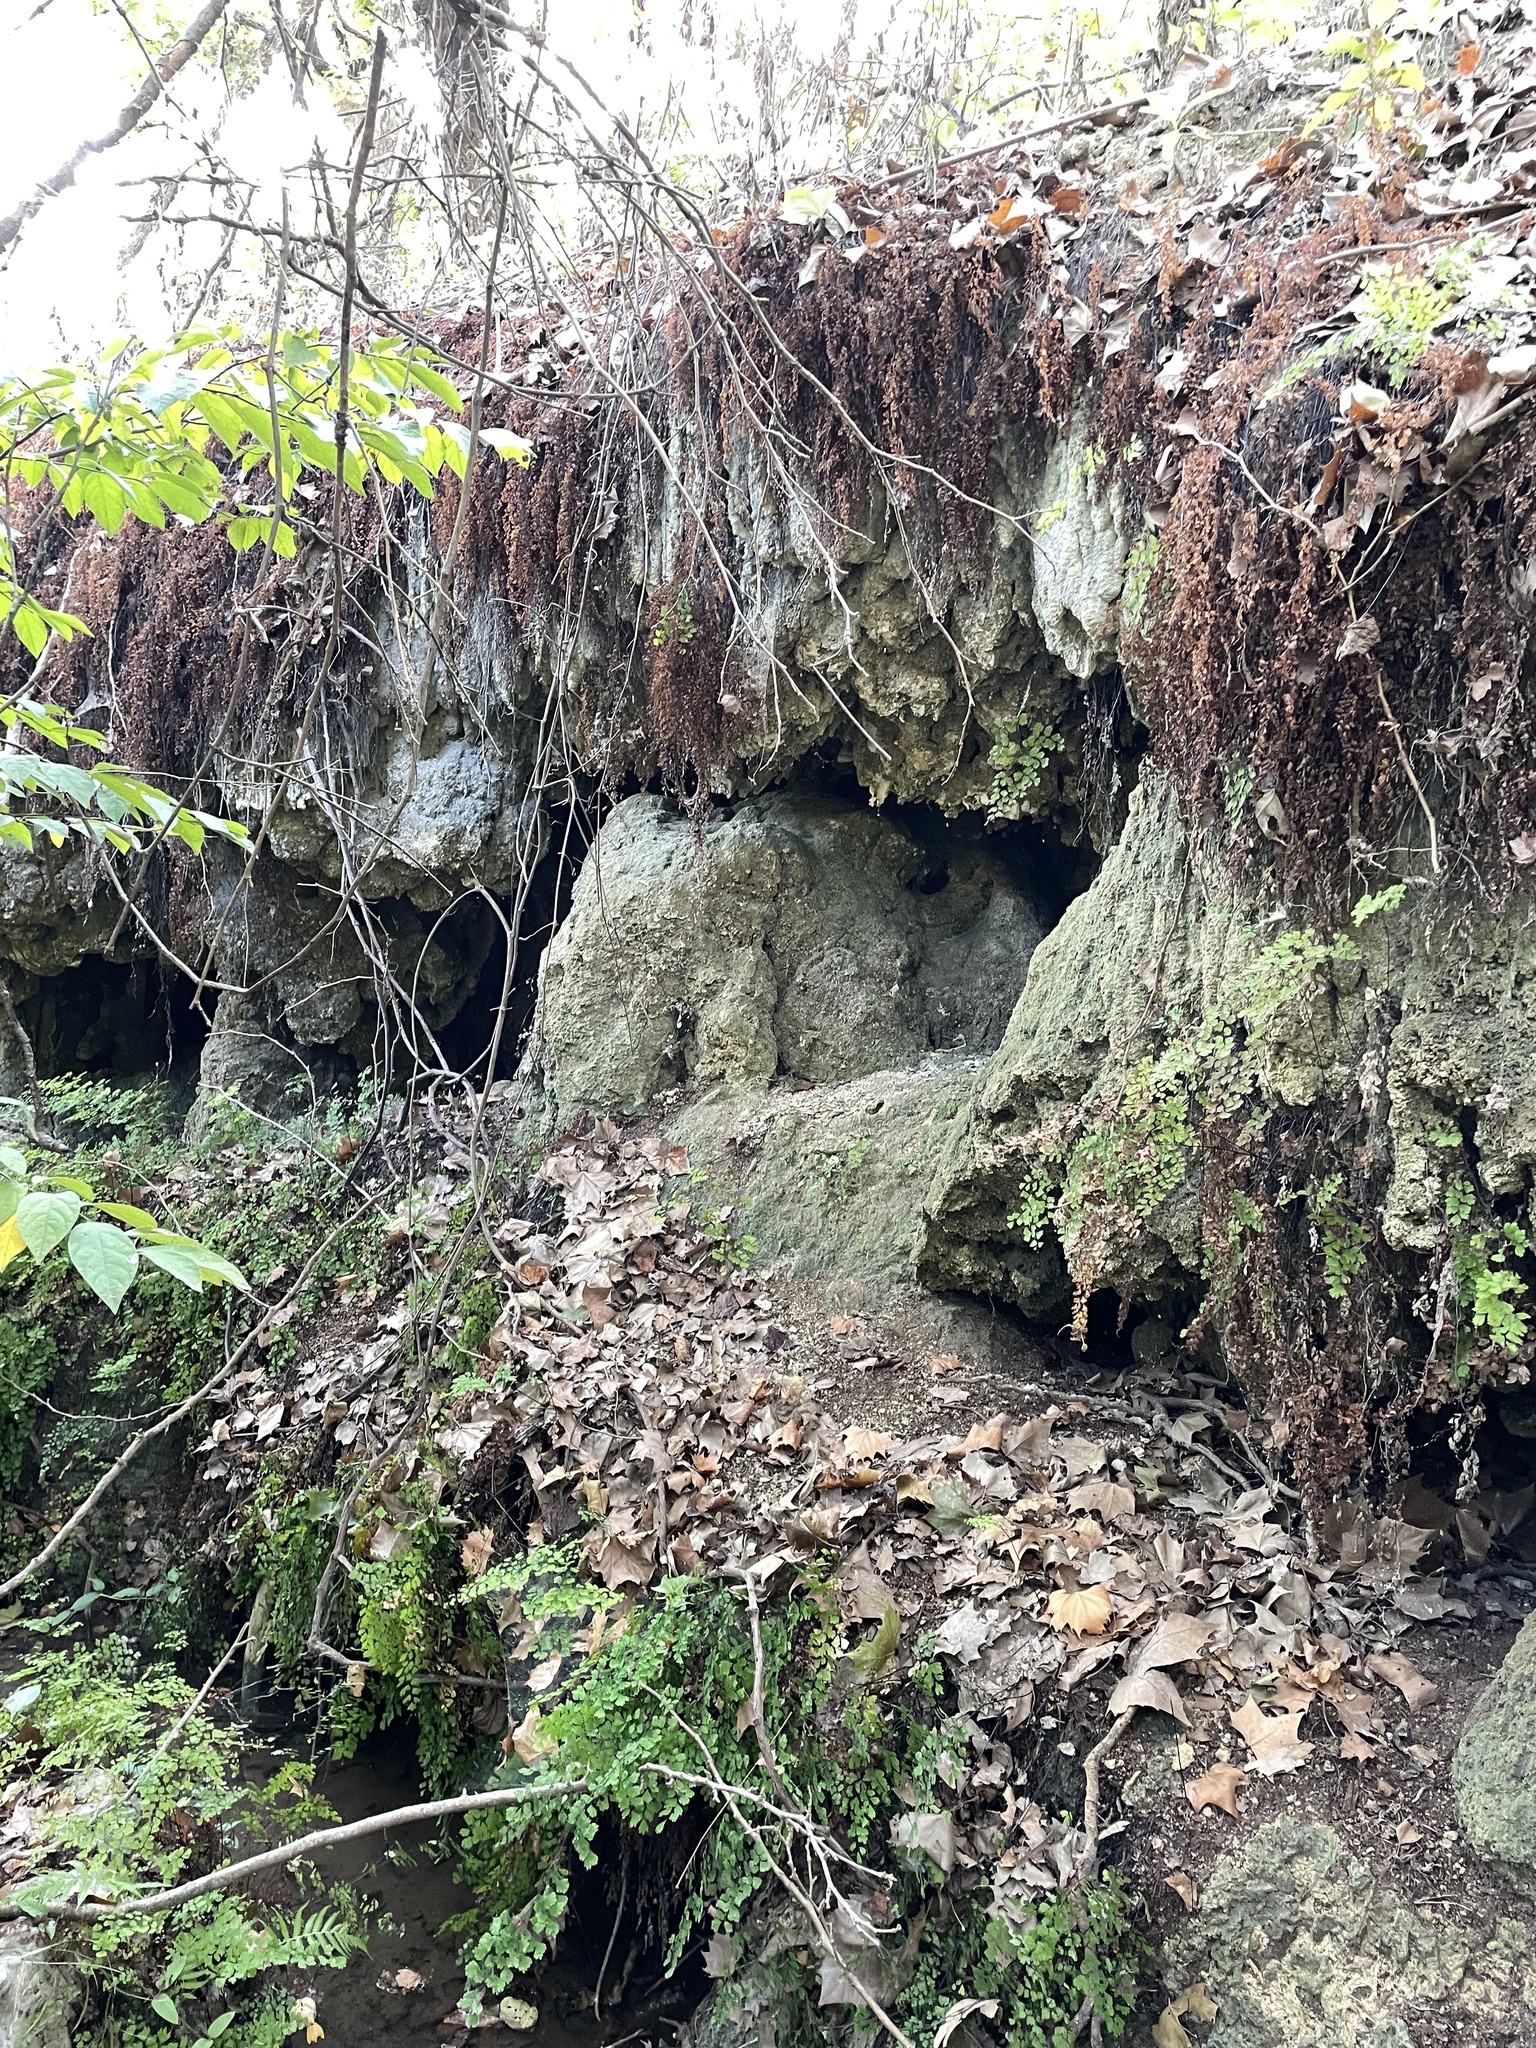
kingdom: Plantae
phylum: Tracheophyta
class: Polypodiopsida
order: Polypodiales
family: Pteridaceae
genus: Adiantum
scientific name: Adiantum capillus-veneris
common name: Maidenhair fern
